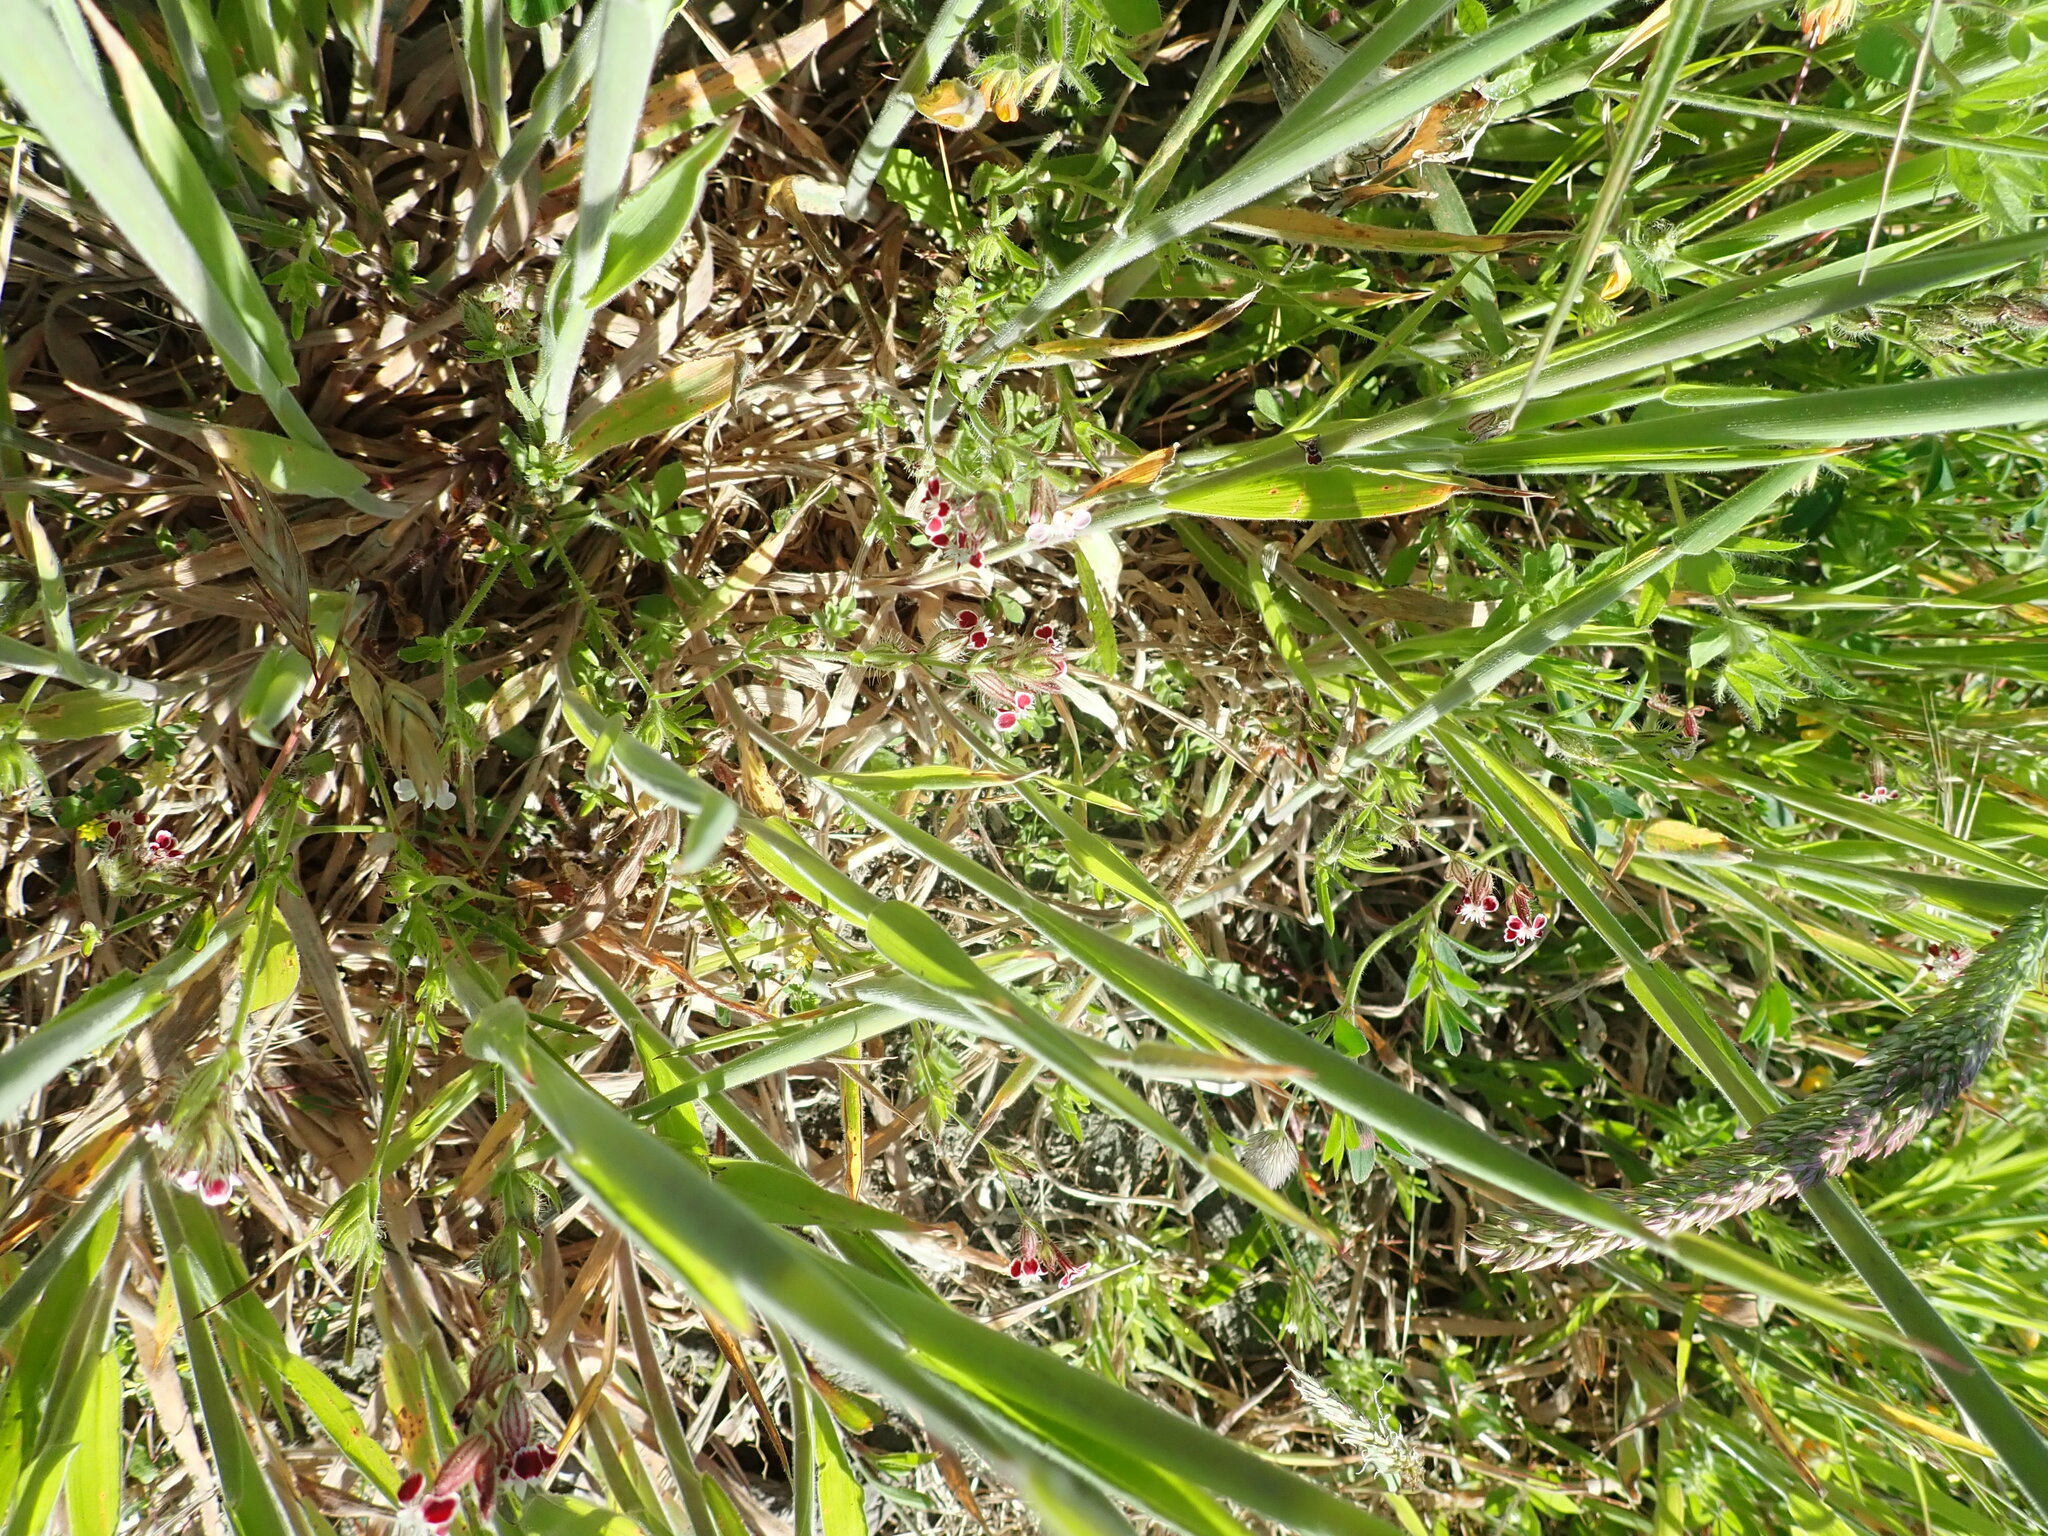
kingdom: Plantae
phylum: Tracheophyta
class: Magnoliopsida
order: Caryophyllales
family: Caryophyllaceae
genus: Silene
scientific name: Silene gallica
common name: Small-flowered catchfly
